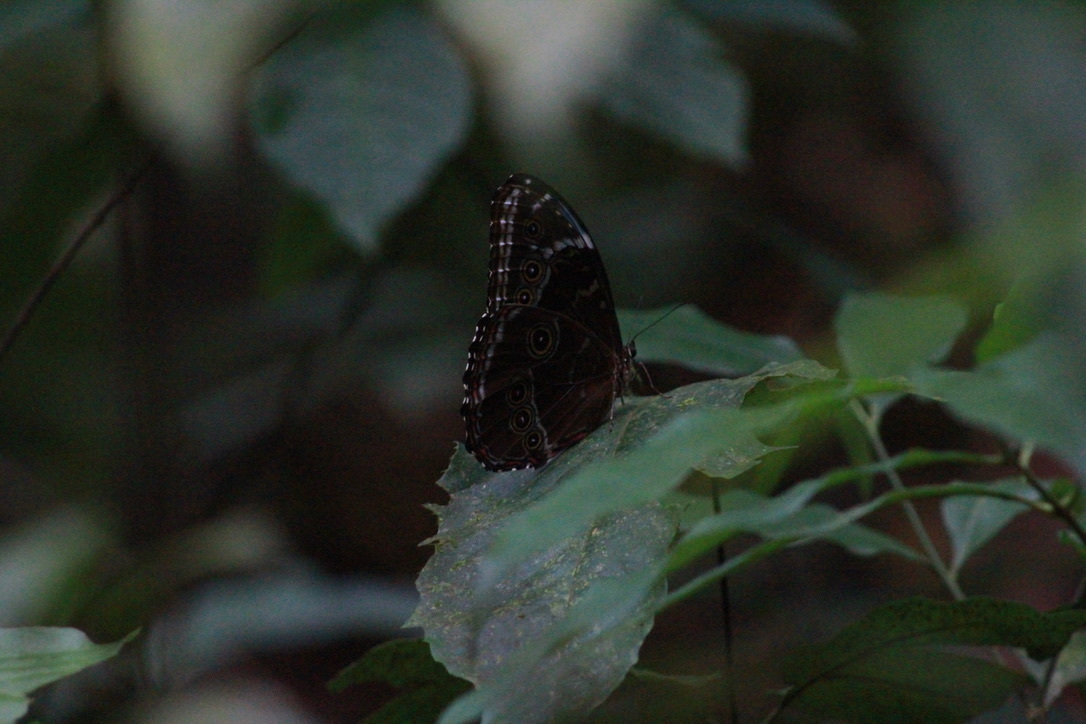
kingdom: Animalia
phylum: Arthropoda
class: Insecta
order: Lepidoptera
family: Nymphalidae
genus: Morpho
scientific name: Morpho helenor
